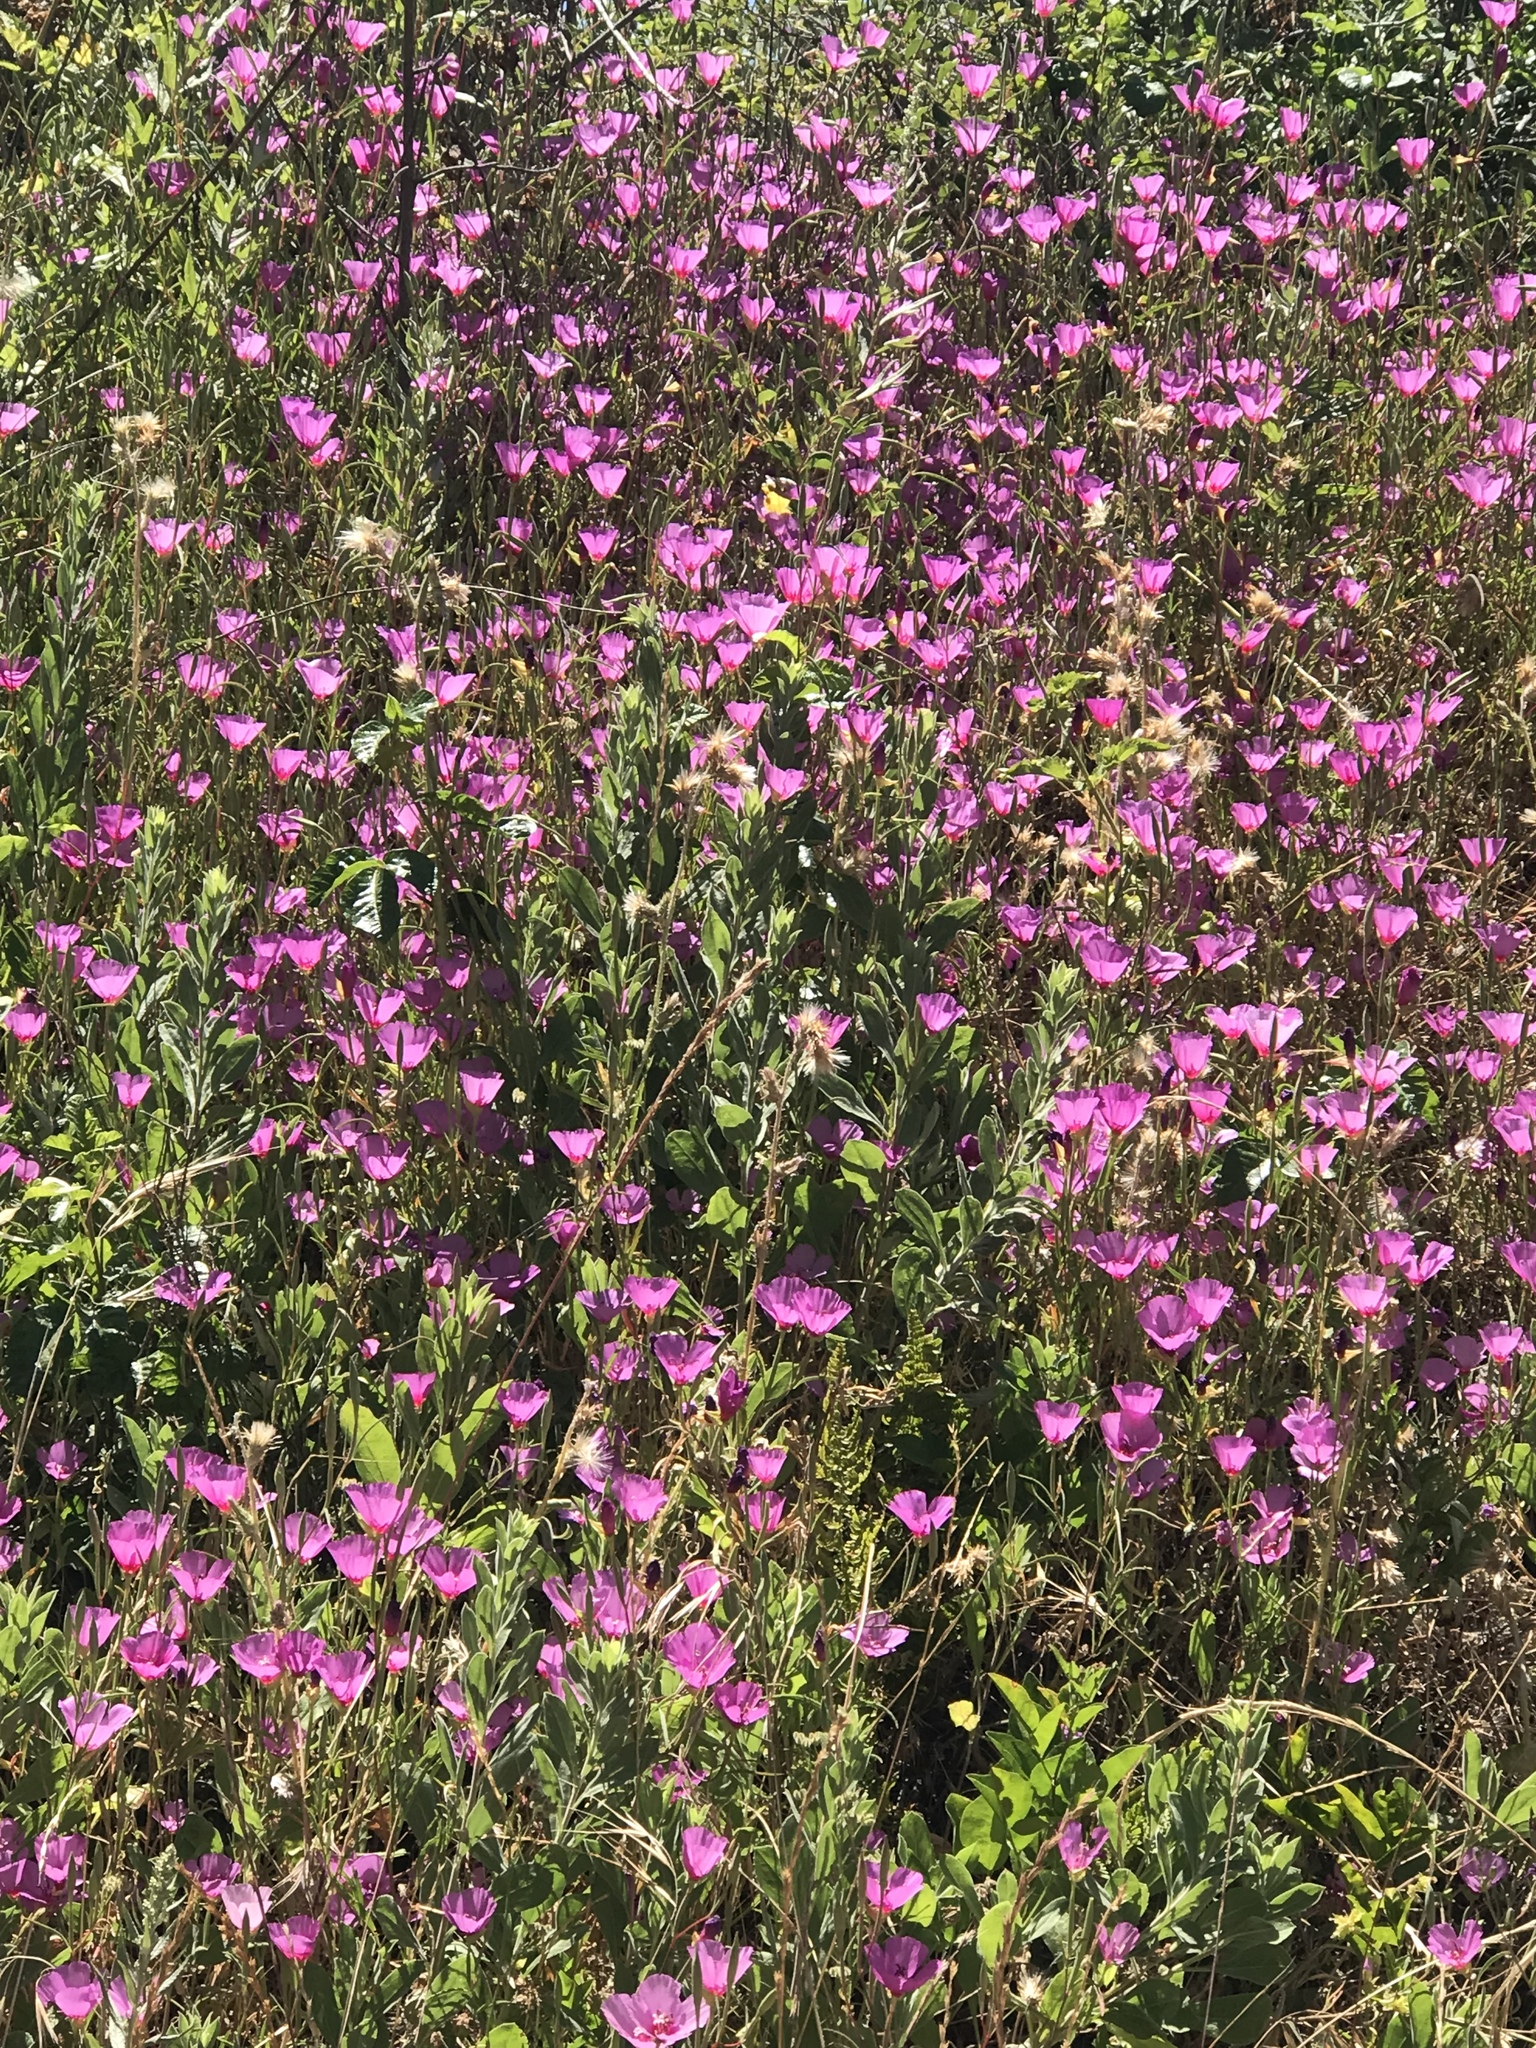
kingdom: Plantae
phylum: Tracheophyta
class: Magnoliopsida
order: Myrtales
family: Onagraceae
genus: Clarkia
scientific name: Clarkia rubicunda
